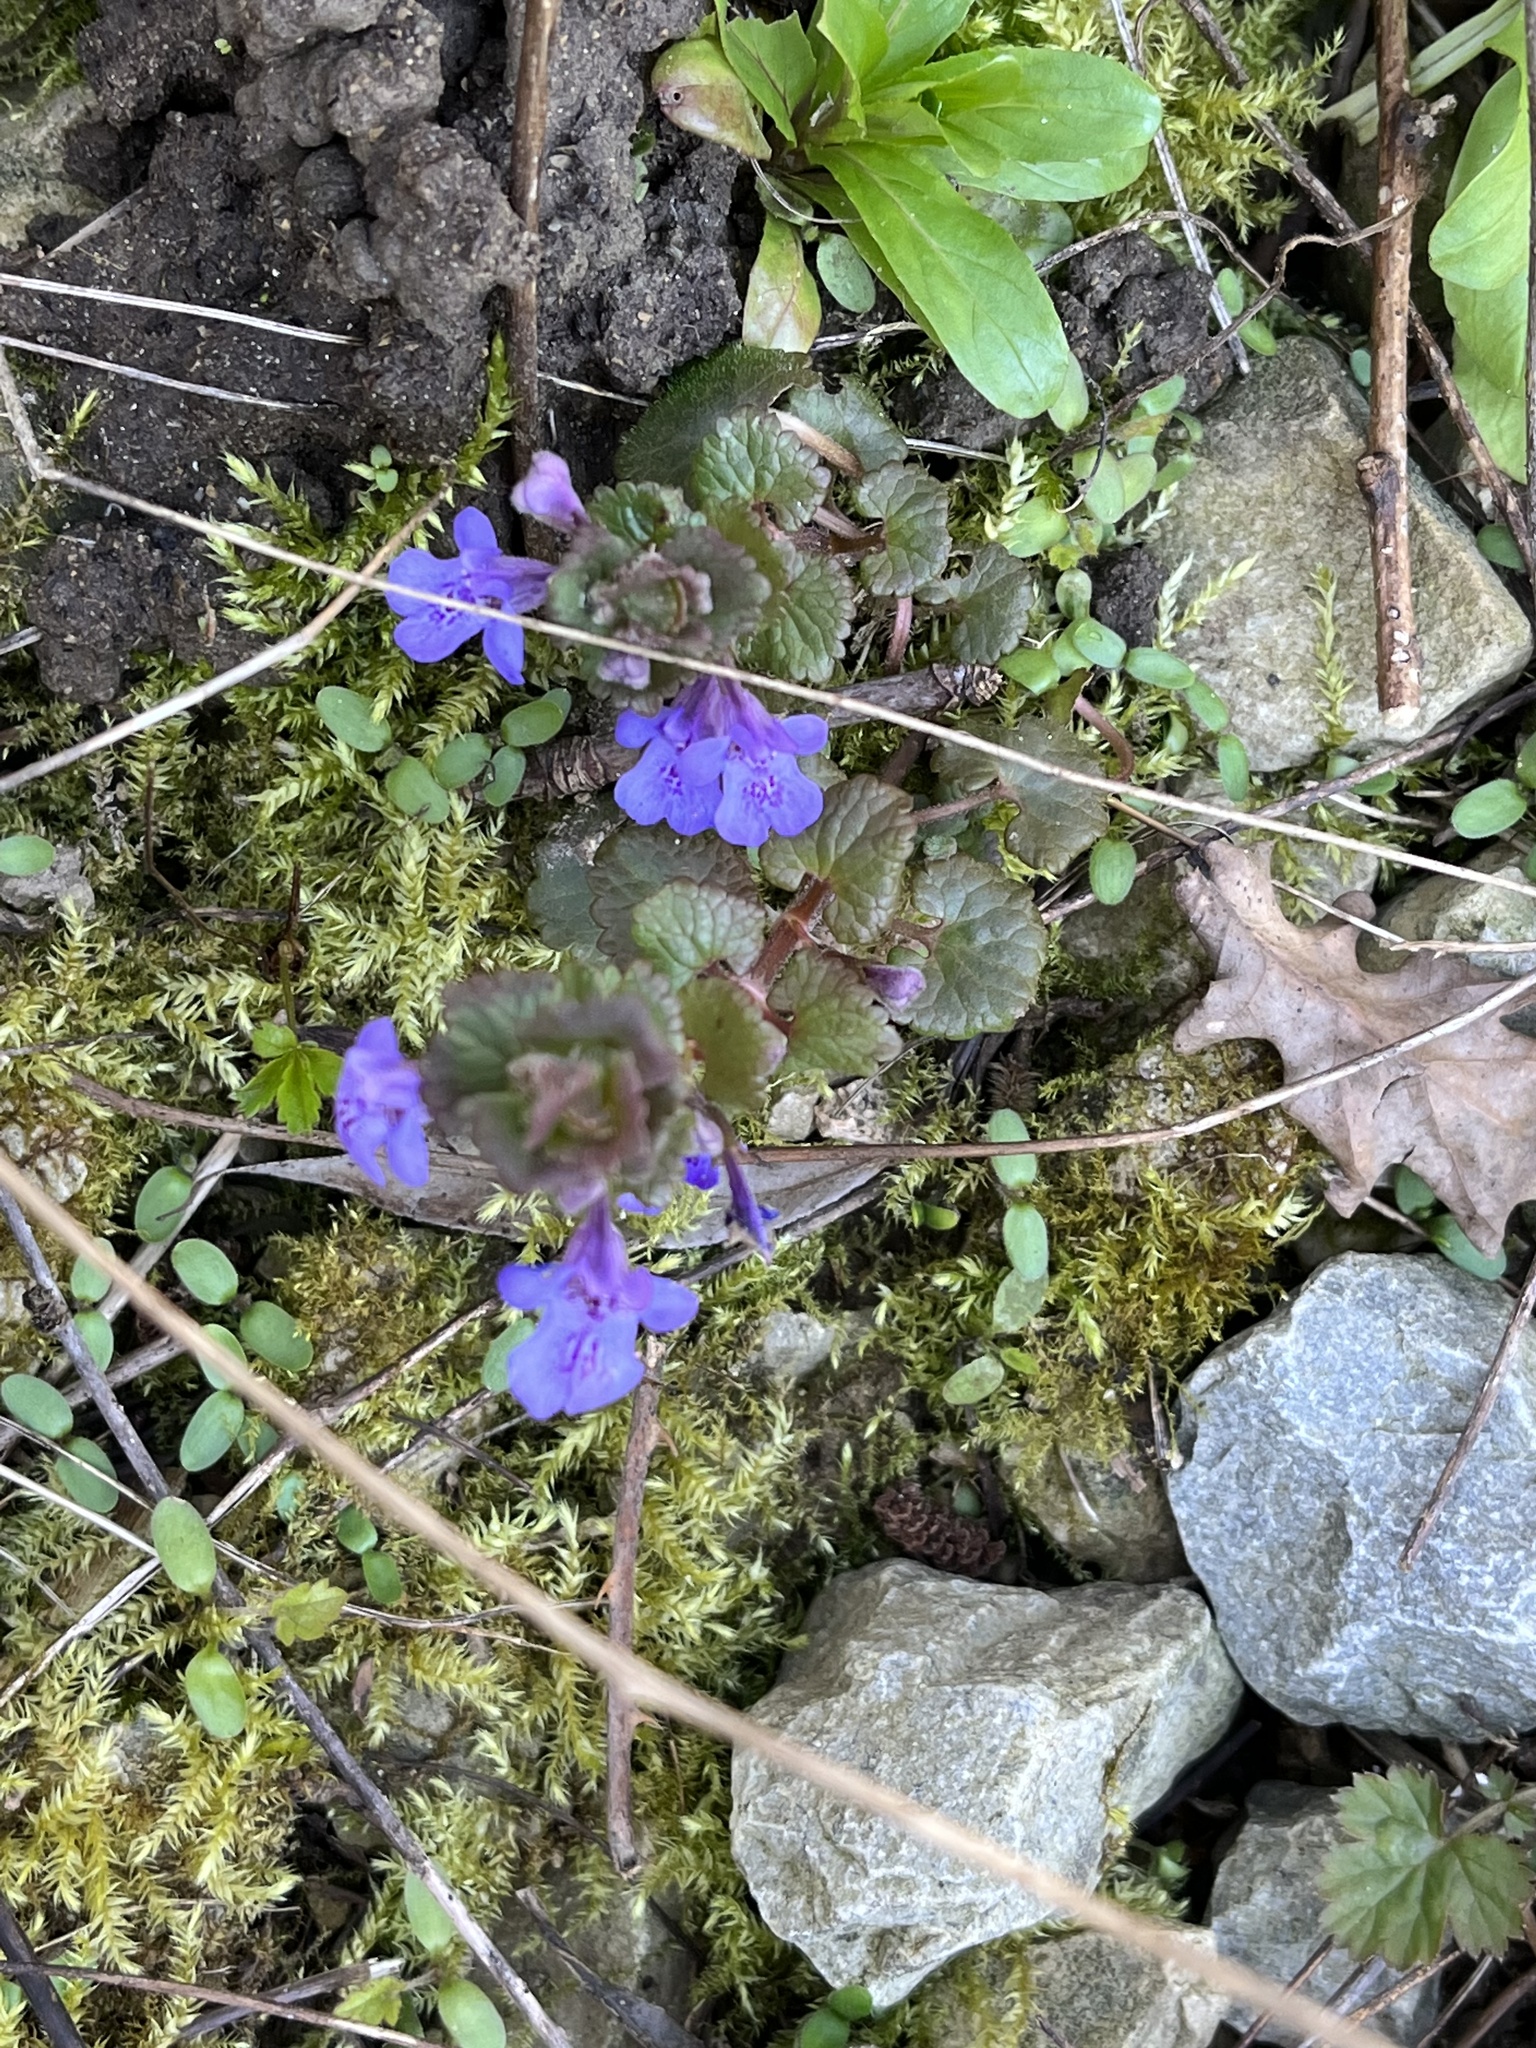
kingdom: Plantae
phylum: Tracheophyta
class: Magnoliopsida
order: Lamiales
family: Lamiaceae
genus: Glechoma
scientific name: Glechoma hederacea
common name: Ground ivy
